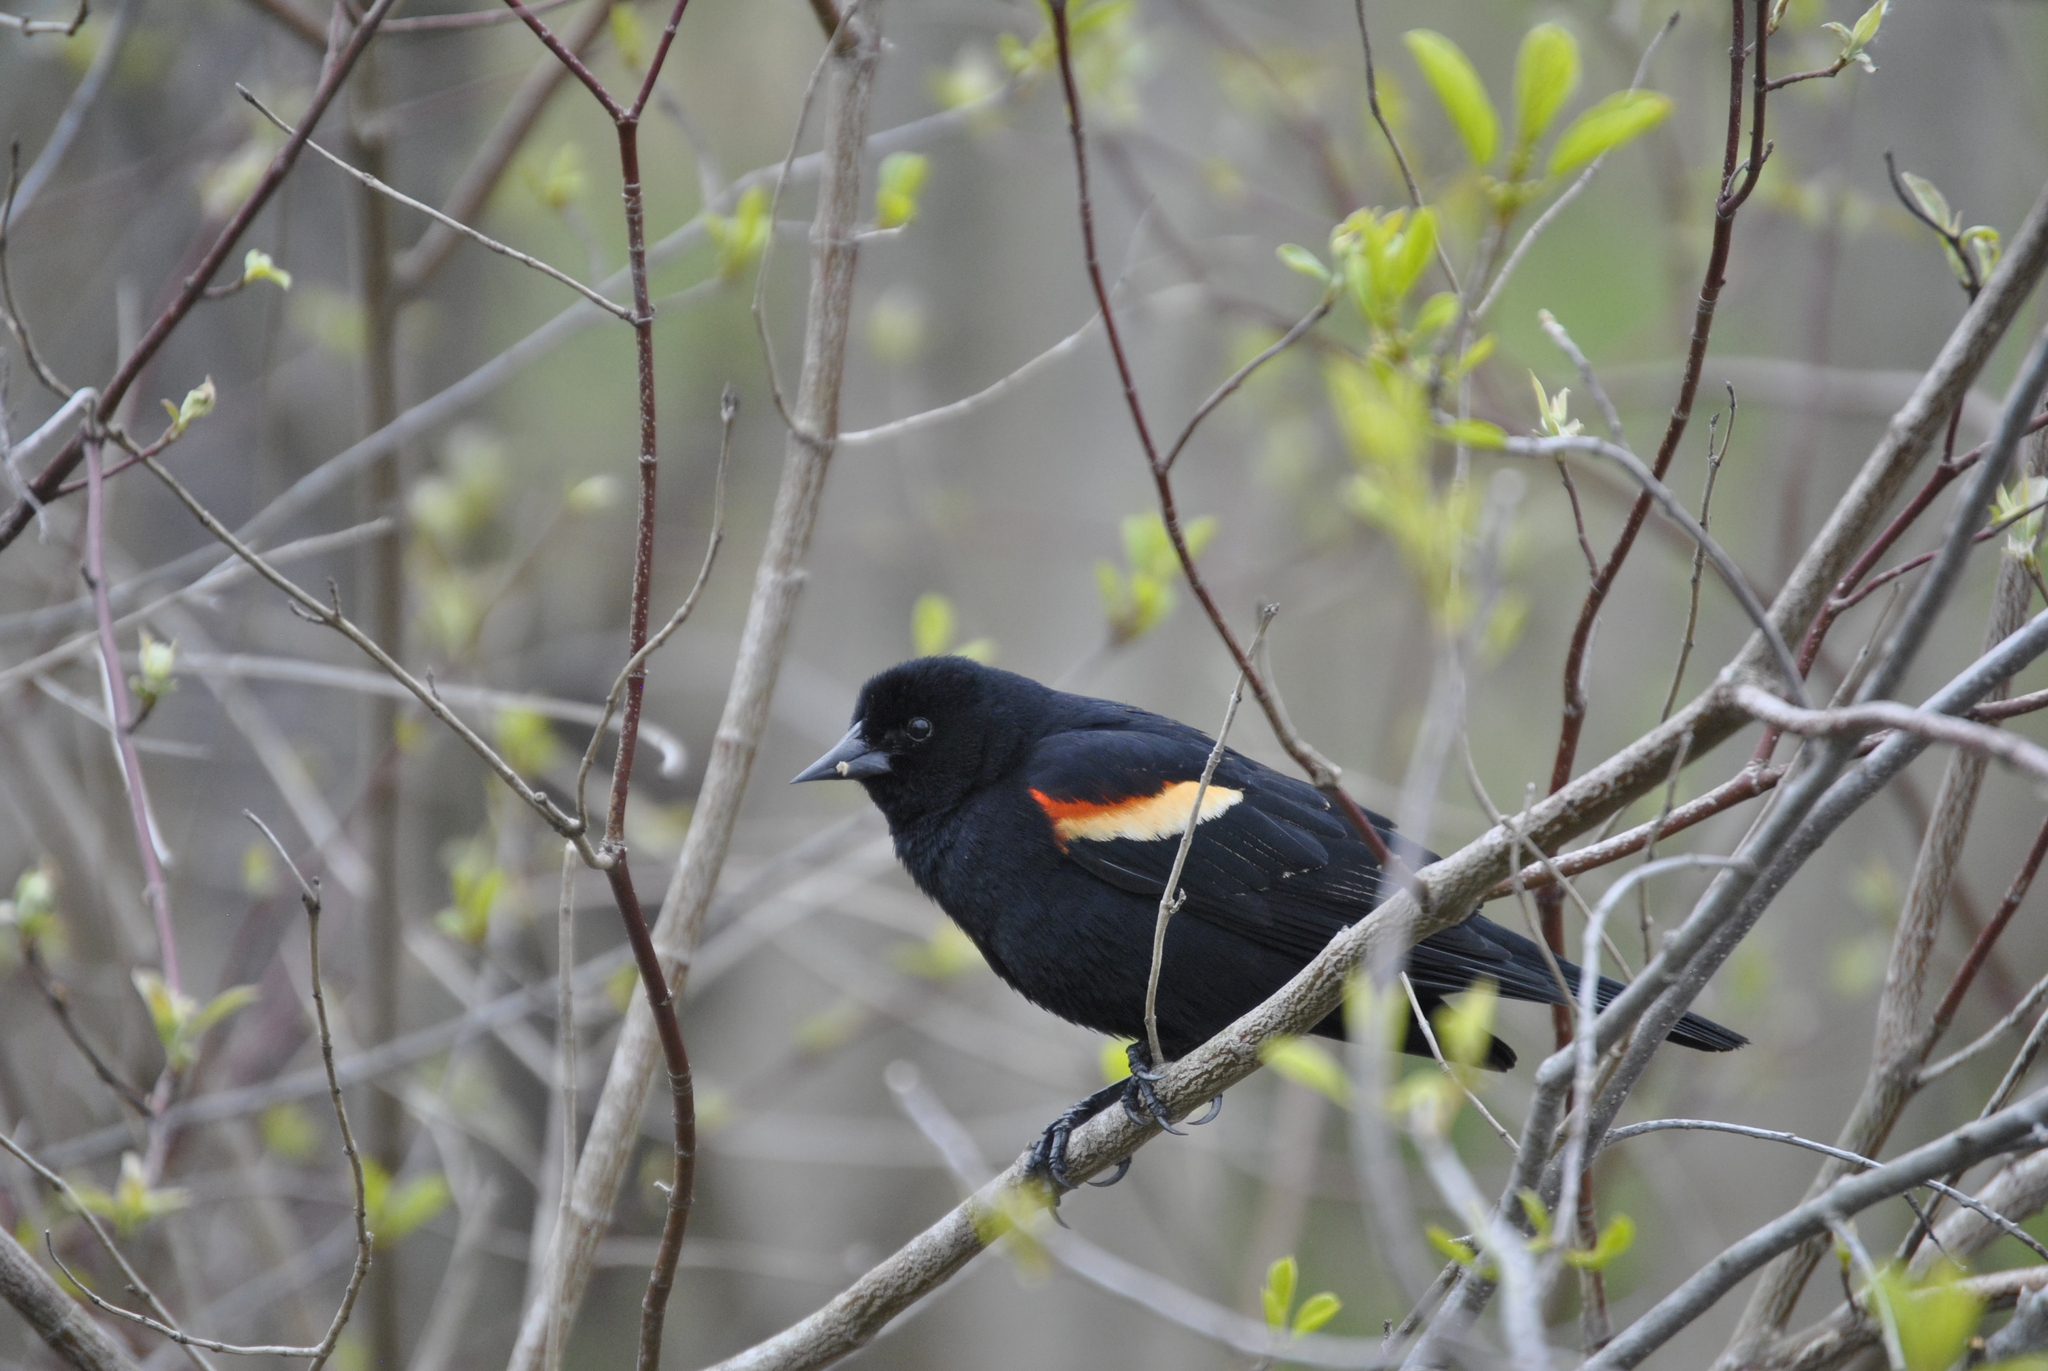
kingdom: Animalia
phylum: Chordata
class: Aves
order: Passeriformes
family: Icteridae
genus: Agelaius
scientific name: Agelaius phoeniceus
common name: Red-winged blackbird
